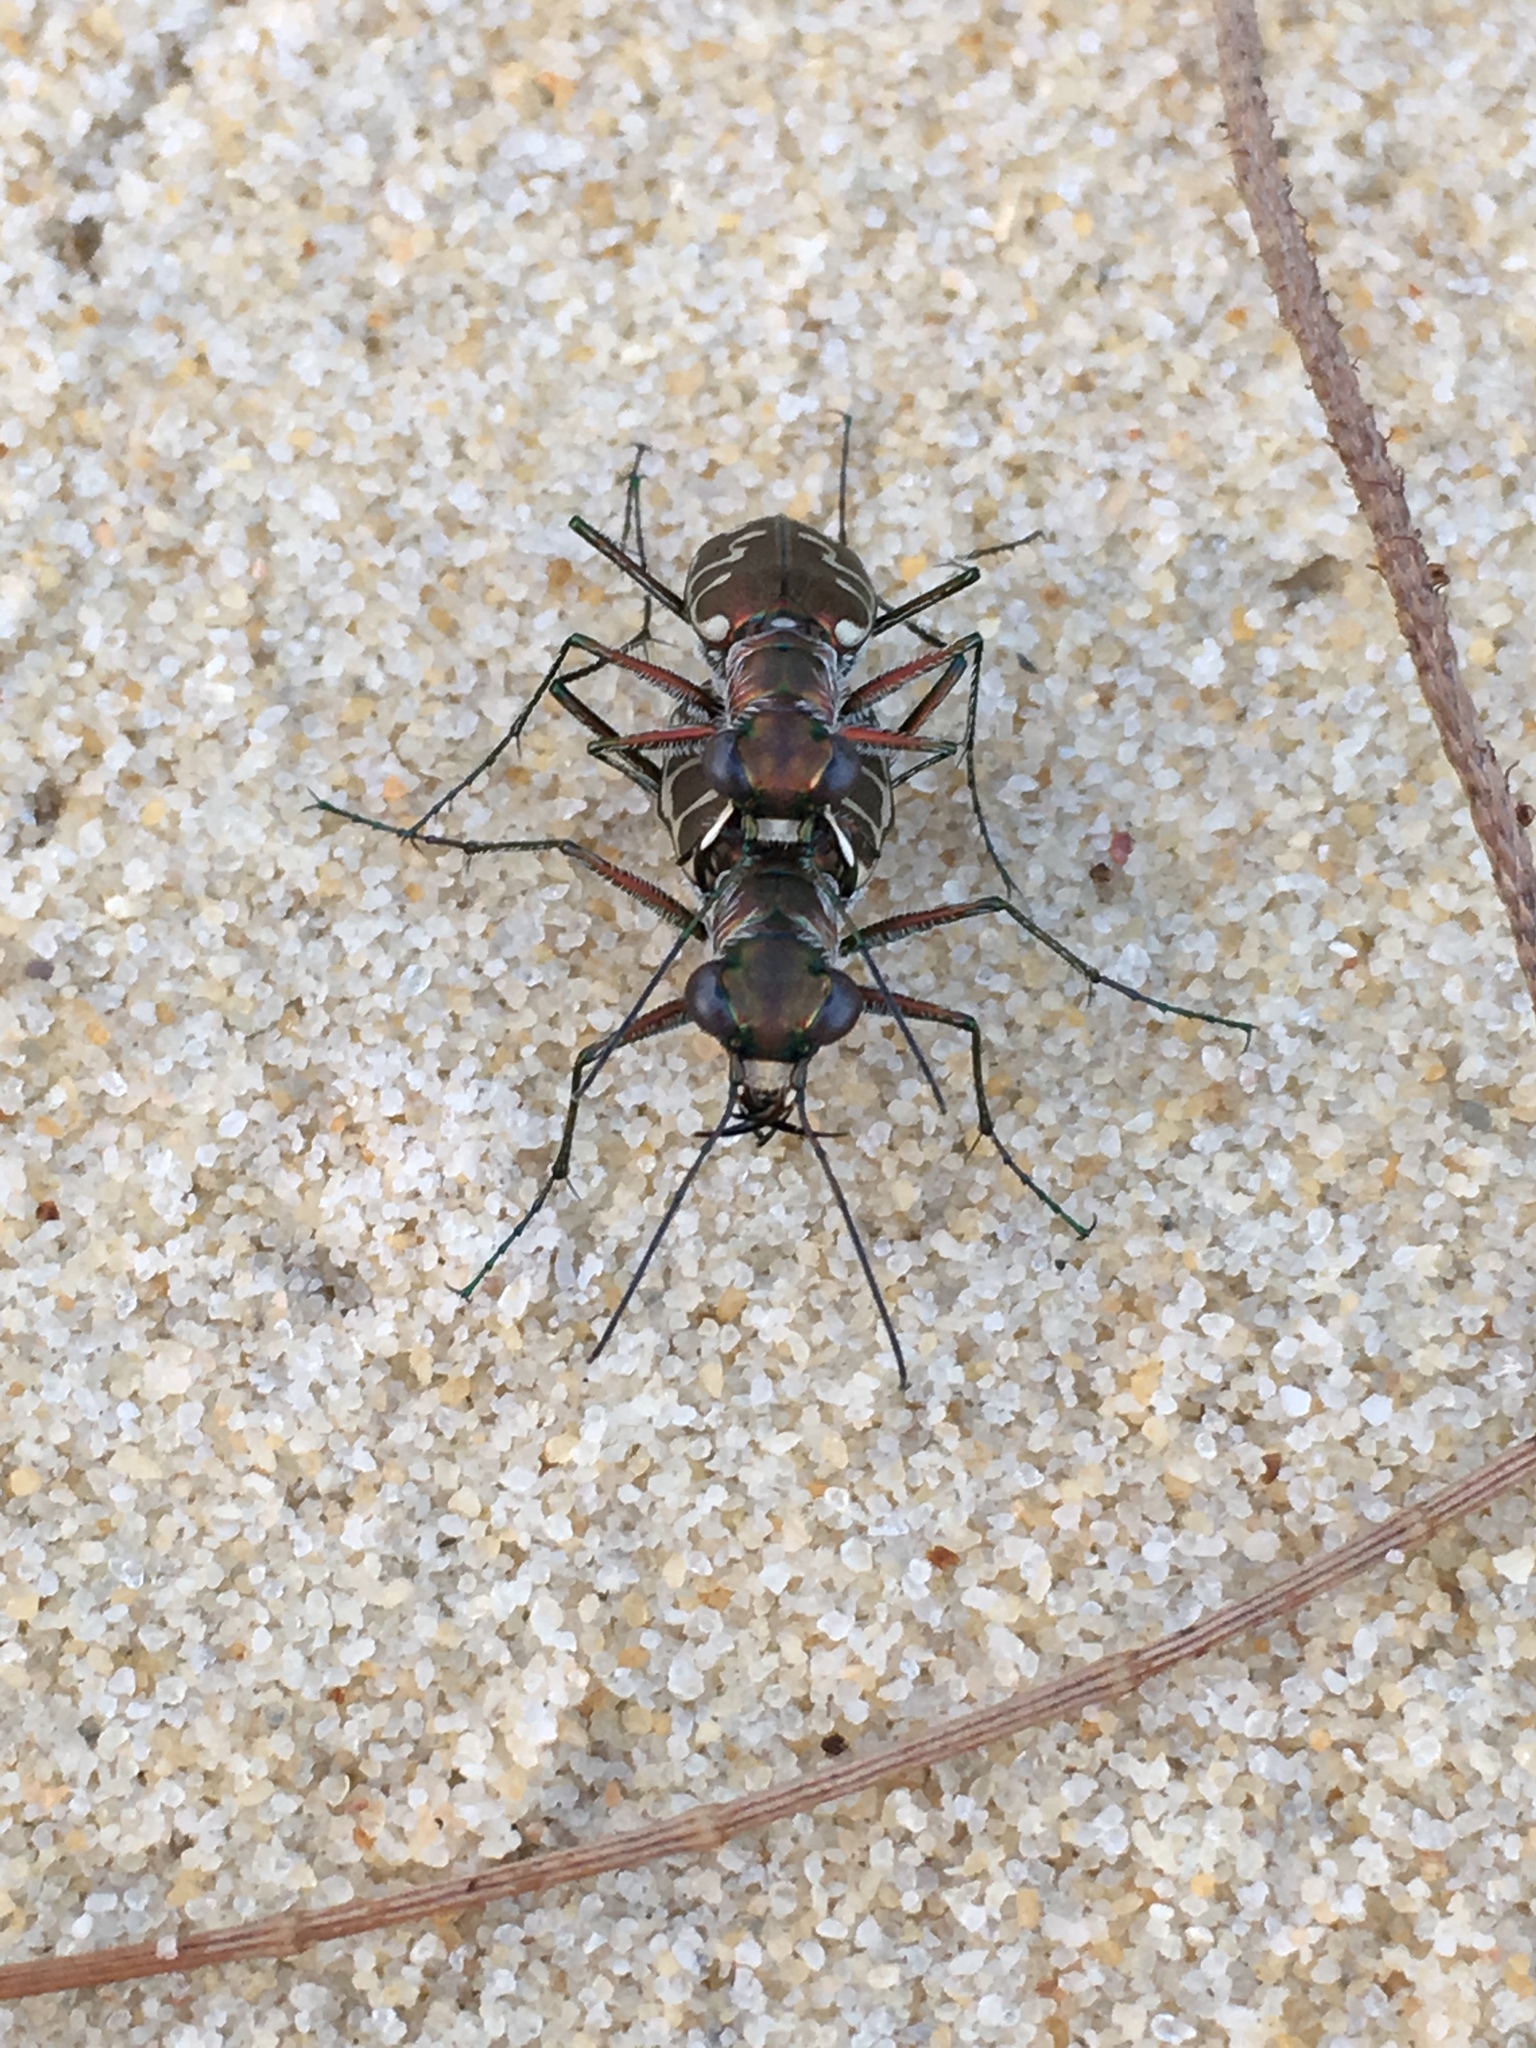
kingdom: Animalia
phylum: Arthropoda
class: Insecta
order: Coleoptera
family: Carabidae
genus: Cicindela
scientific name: Cicindela angulata
